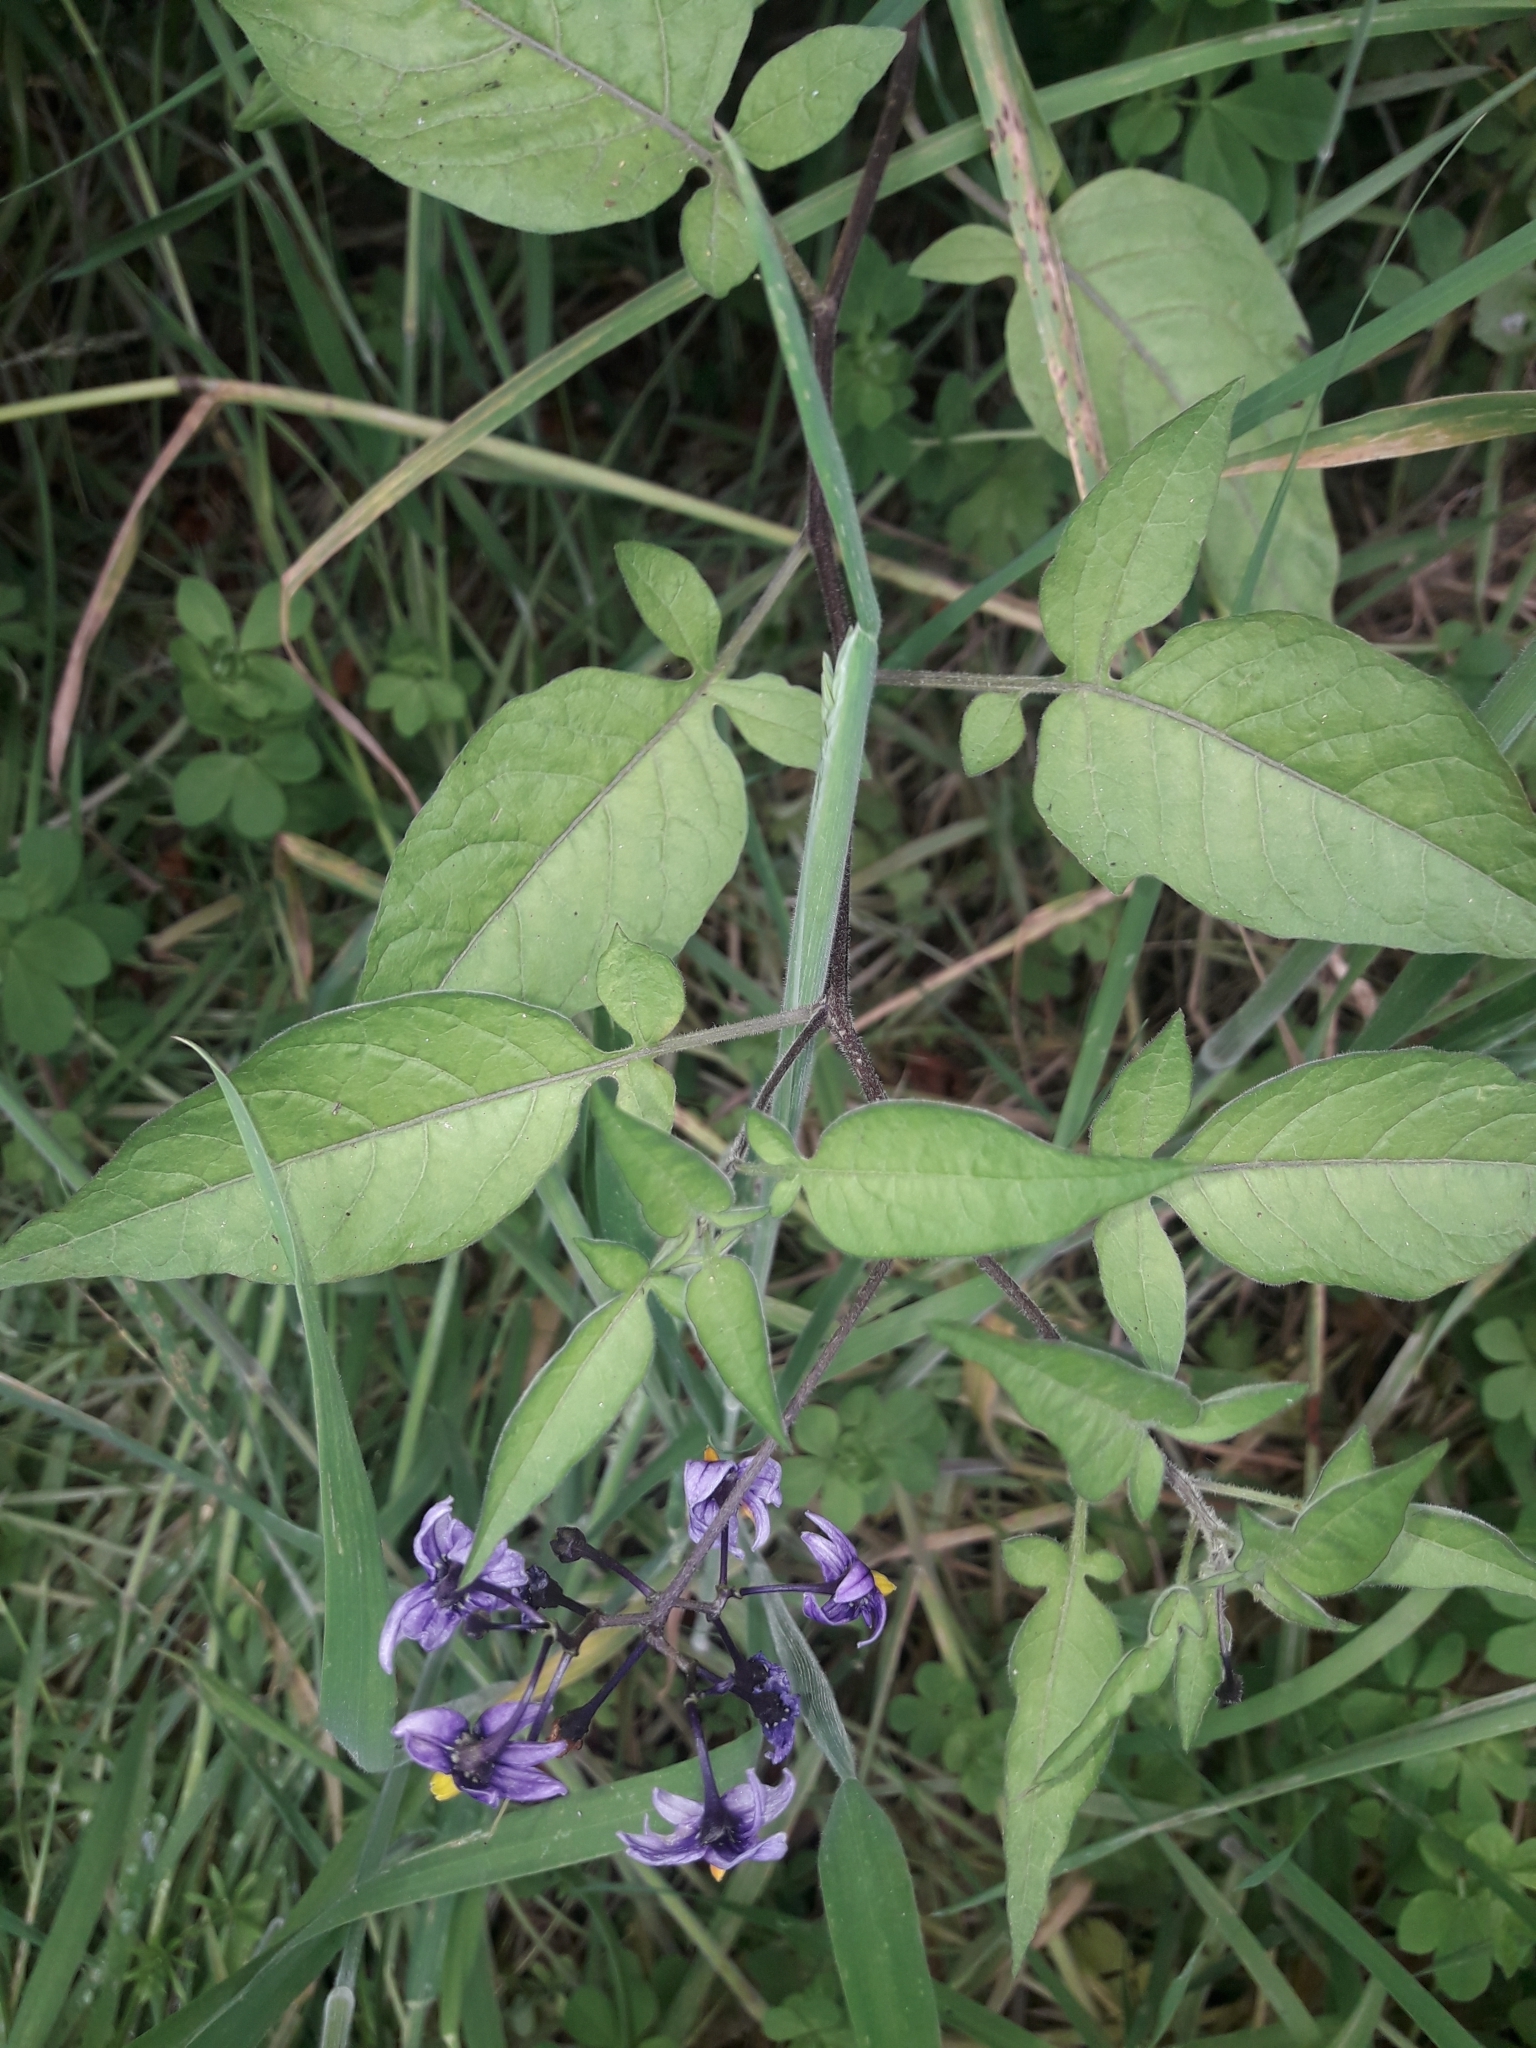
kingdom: Plantae
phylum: Tracheophyta
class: Magnoliopsida
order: Solanales
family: Solanaceae
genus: Solanum
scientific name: Solanum dulcamara
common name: Climbing nightshade
